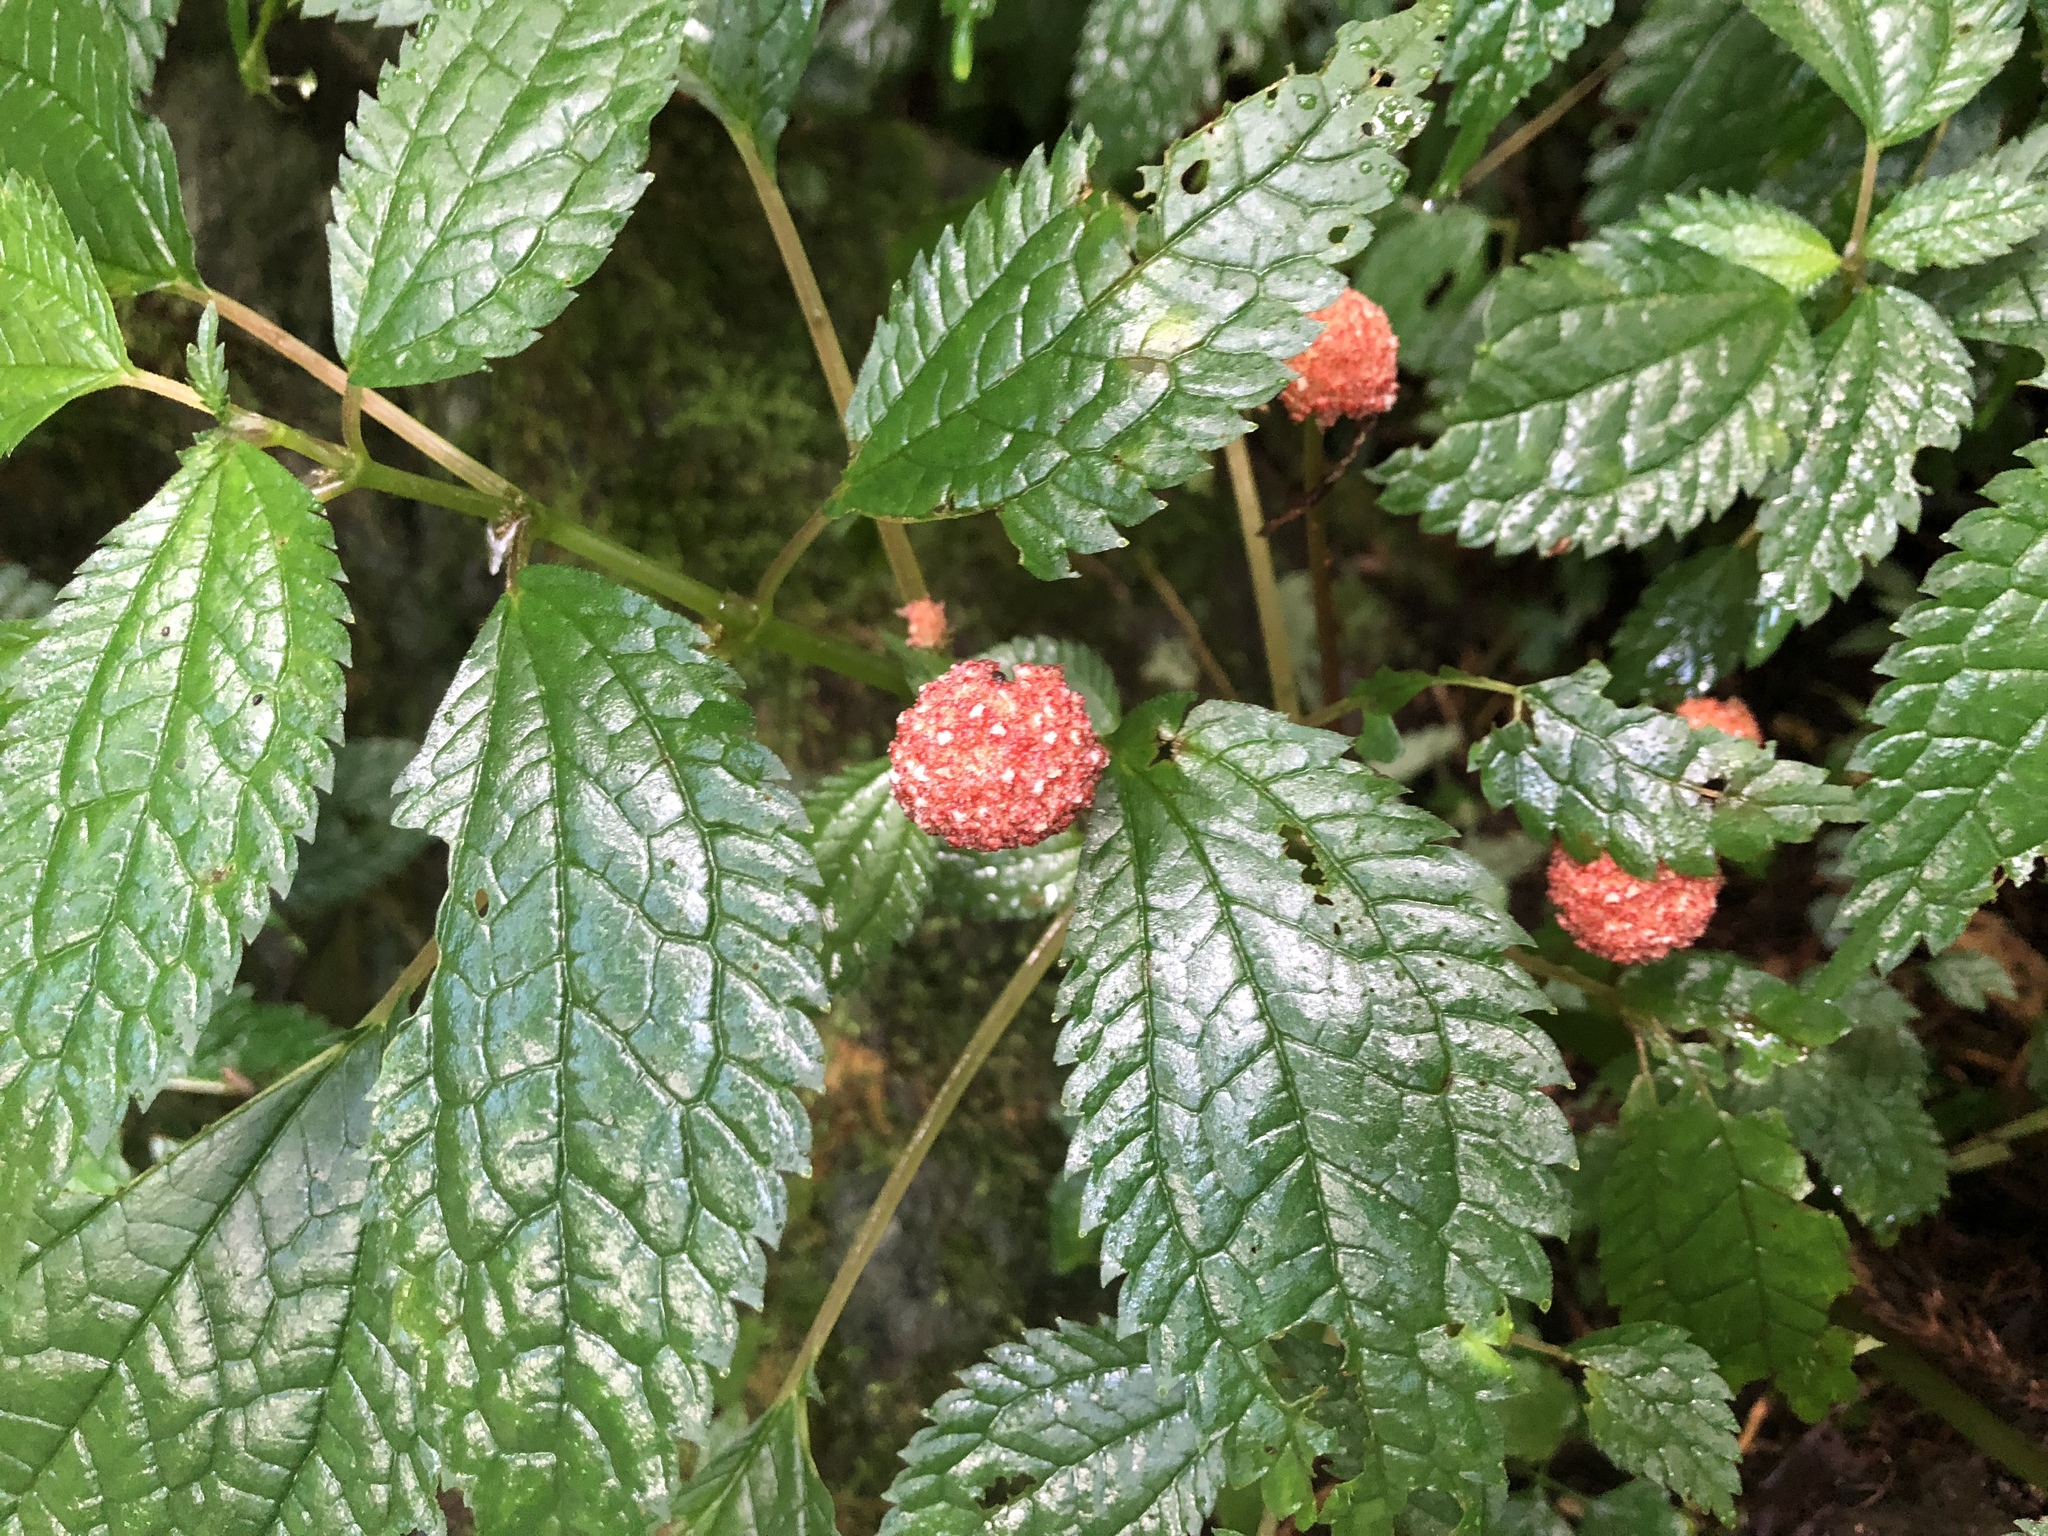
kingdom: Plantae
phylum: Tracheophyta
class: Magnoliopsida
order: Rosales
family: Urticaceae
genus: Lecanthus
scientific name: Lecanthus peduncularis
